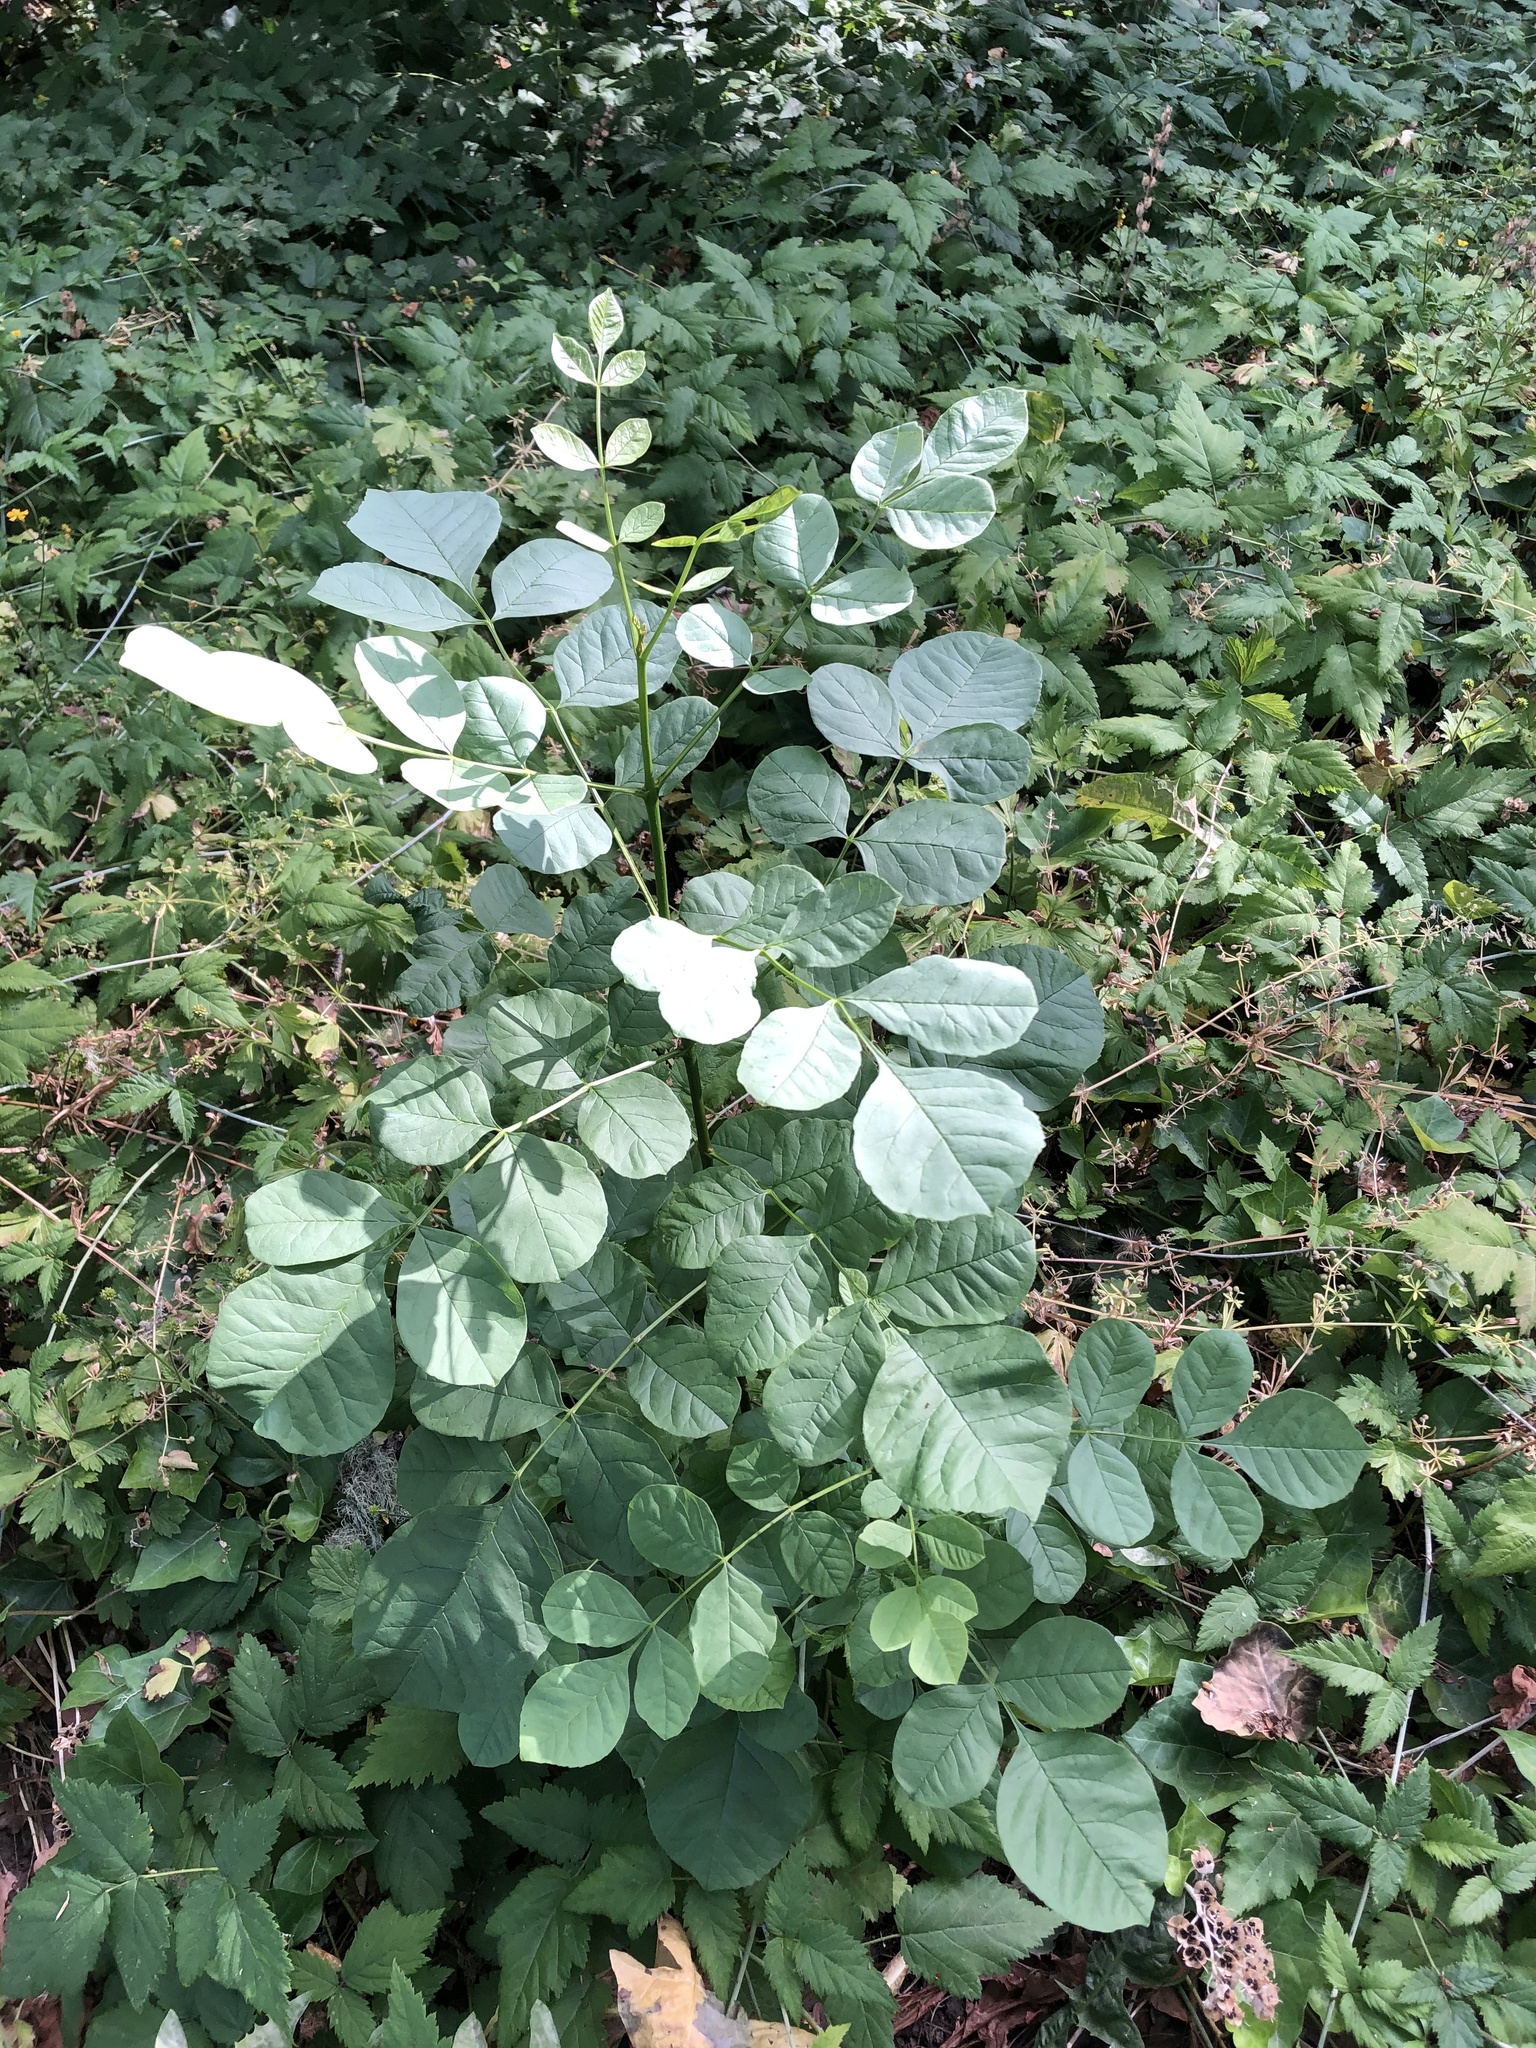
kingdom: Plantae
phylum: Tracheophyta
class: Magnoliopsida
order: Lamiales
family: Oleaceae
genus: Fraxinus
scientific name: Fraxinus latifolia
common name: Oregon ash
